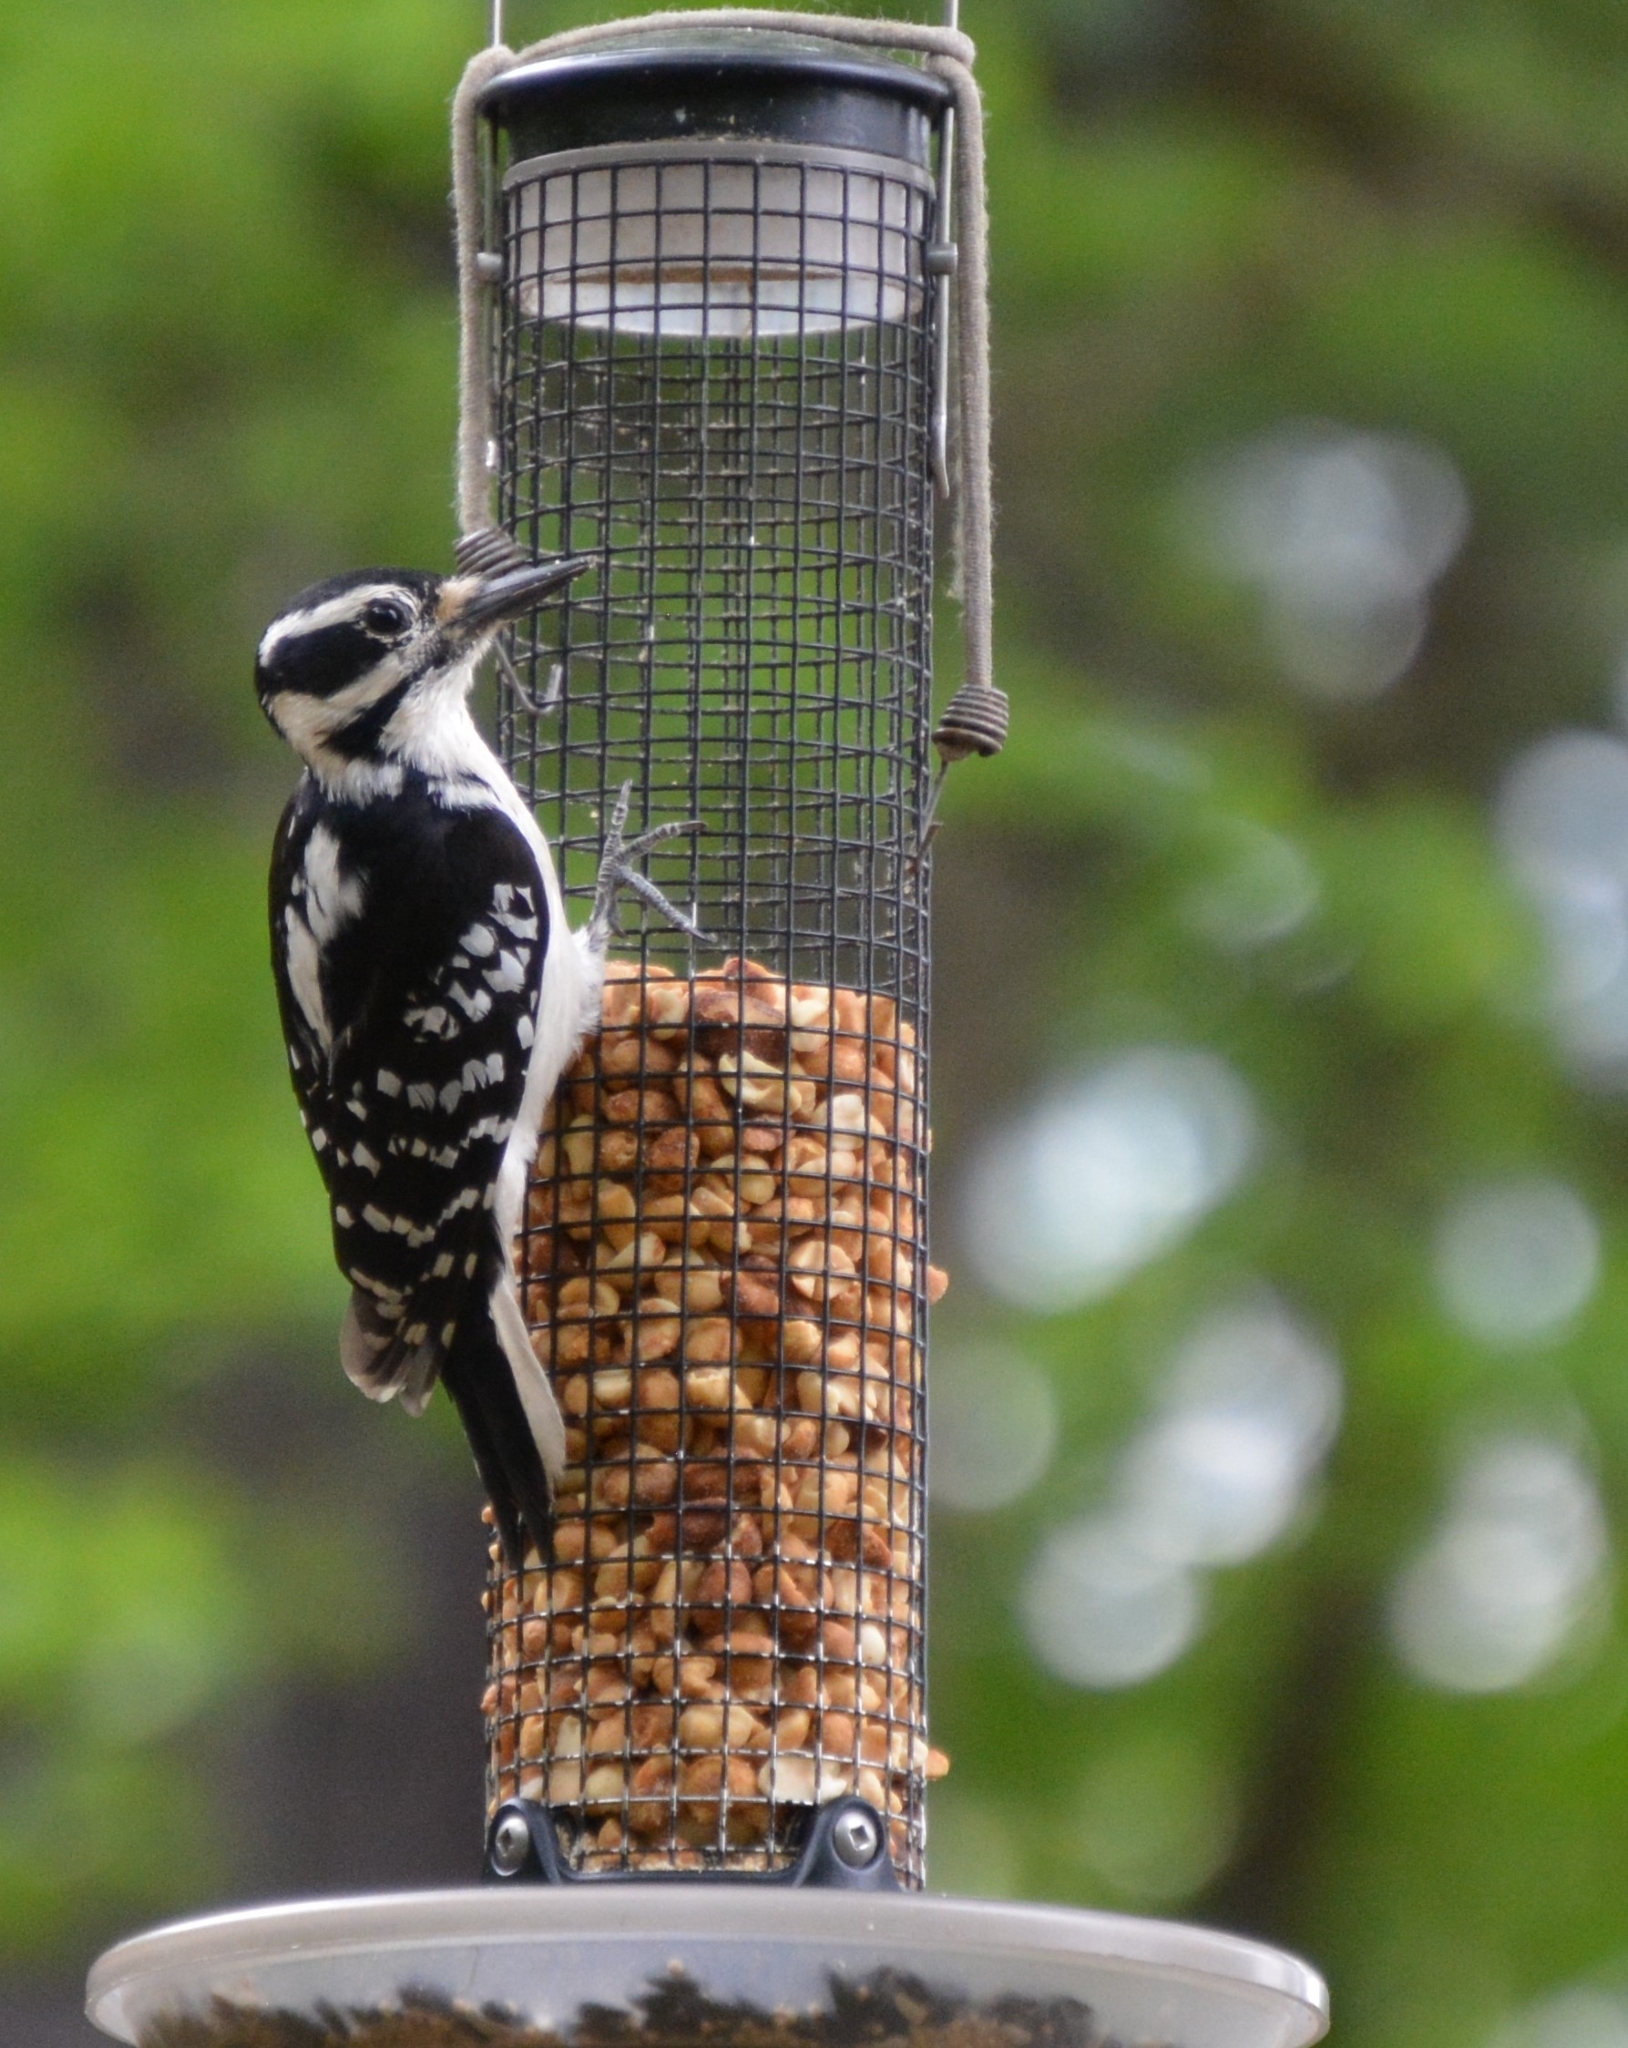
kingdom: Animalia
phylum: Chordata
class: Aves
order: Piciformes
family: Picidae
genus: Leuconotopicus
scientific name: Leuconotopicus villosus
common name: Hairy woodpecker
